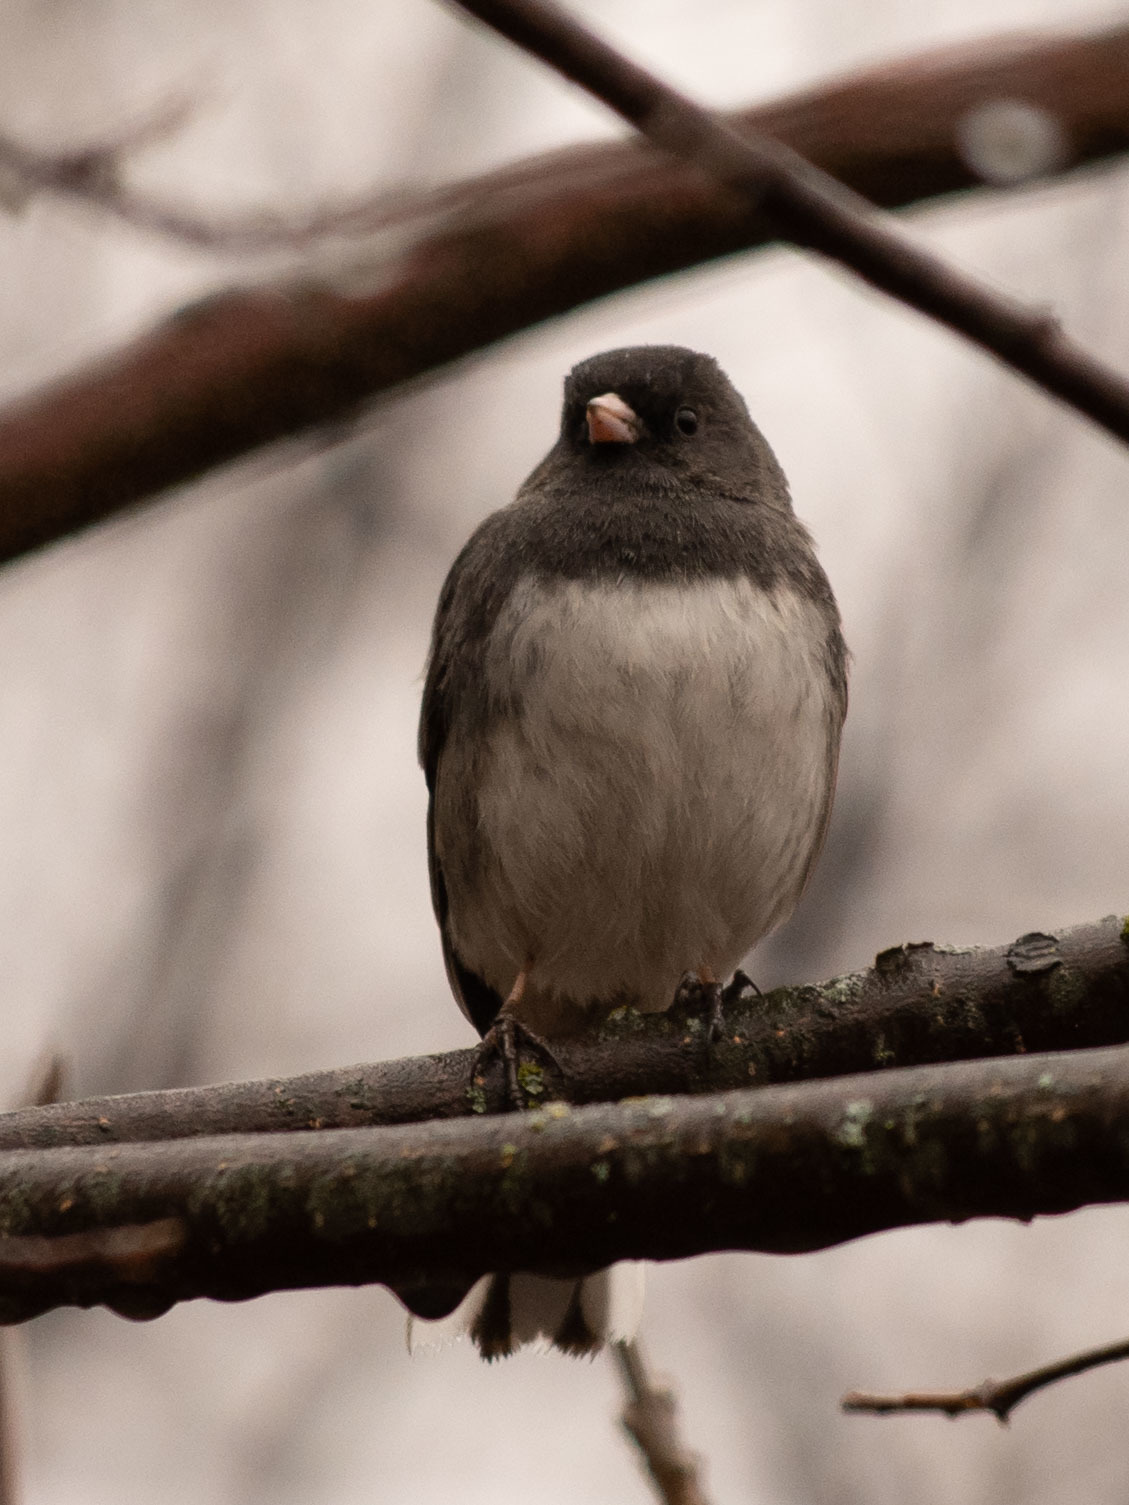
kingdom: Animalia
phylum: Chordata
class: Aves
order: Passeriformes
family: Passerellidae
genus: Junco
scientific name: Junco hyemalis
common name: Dark-eyed junco
